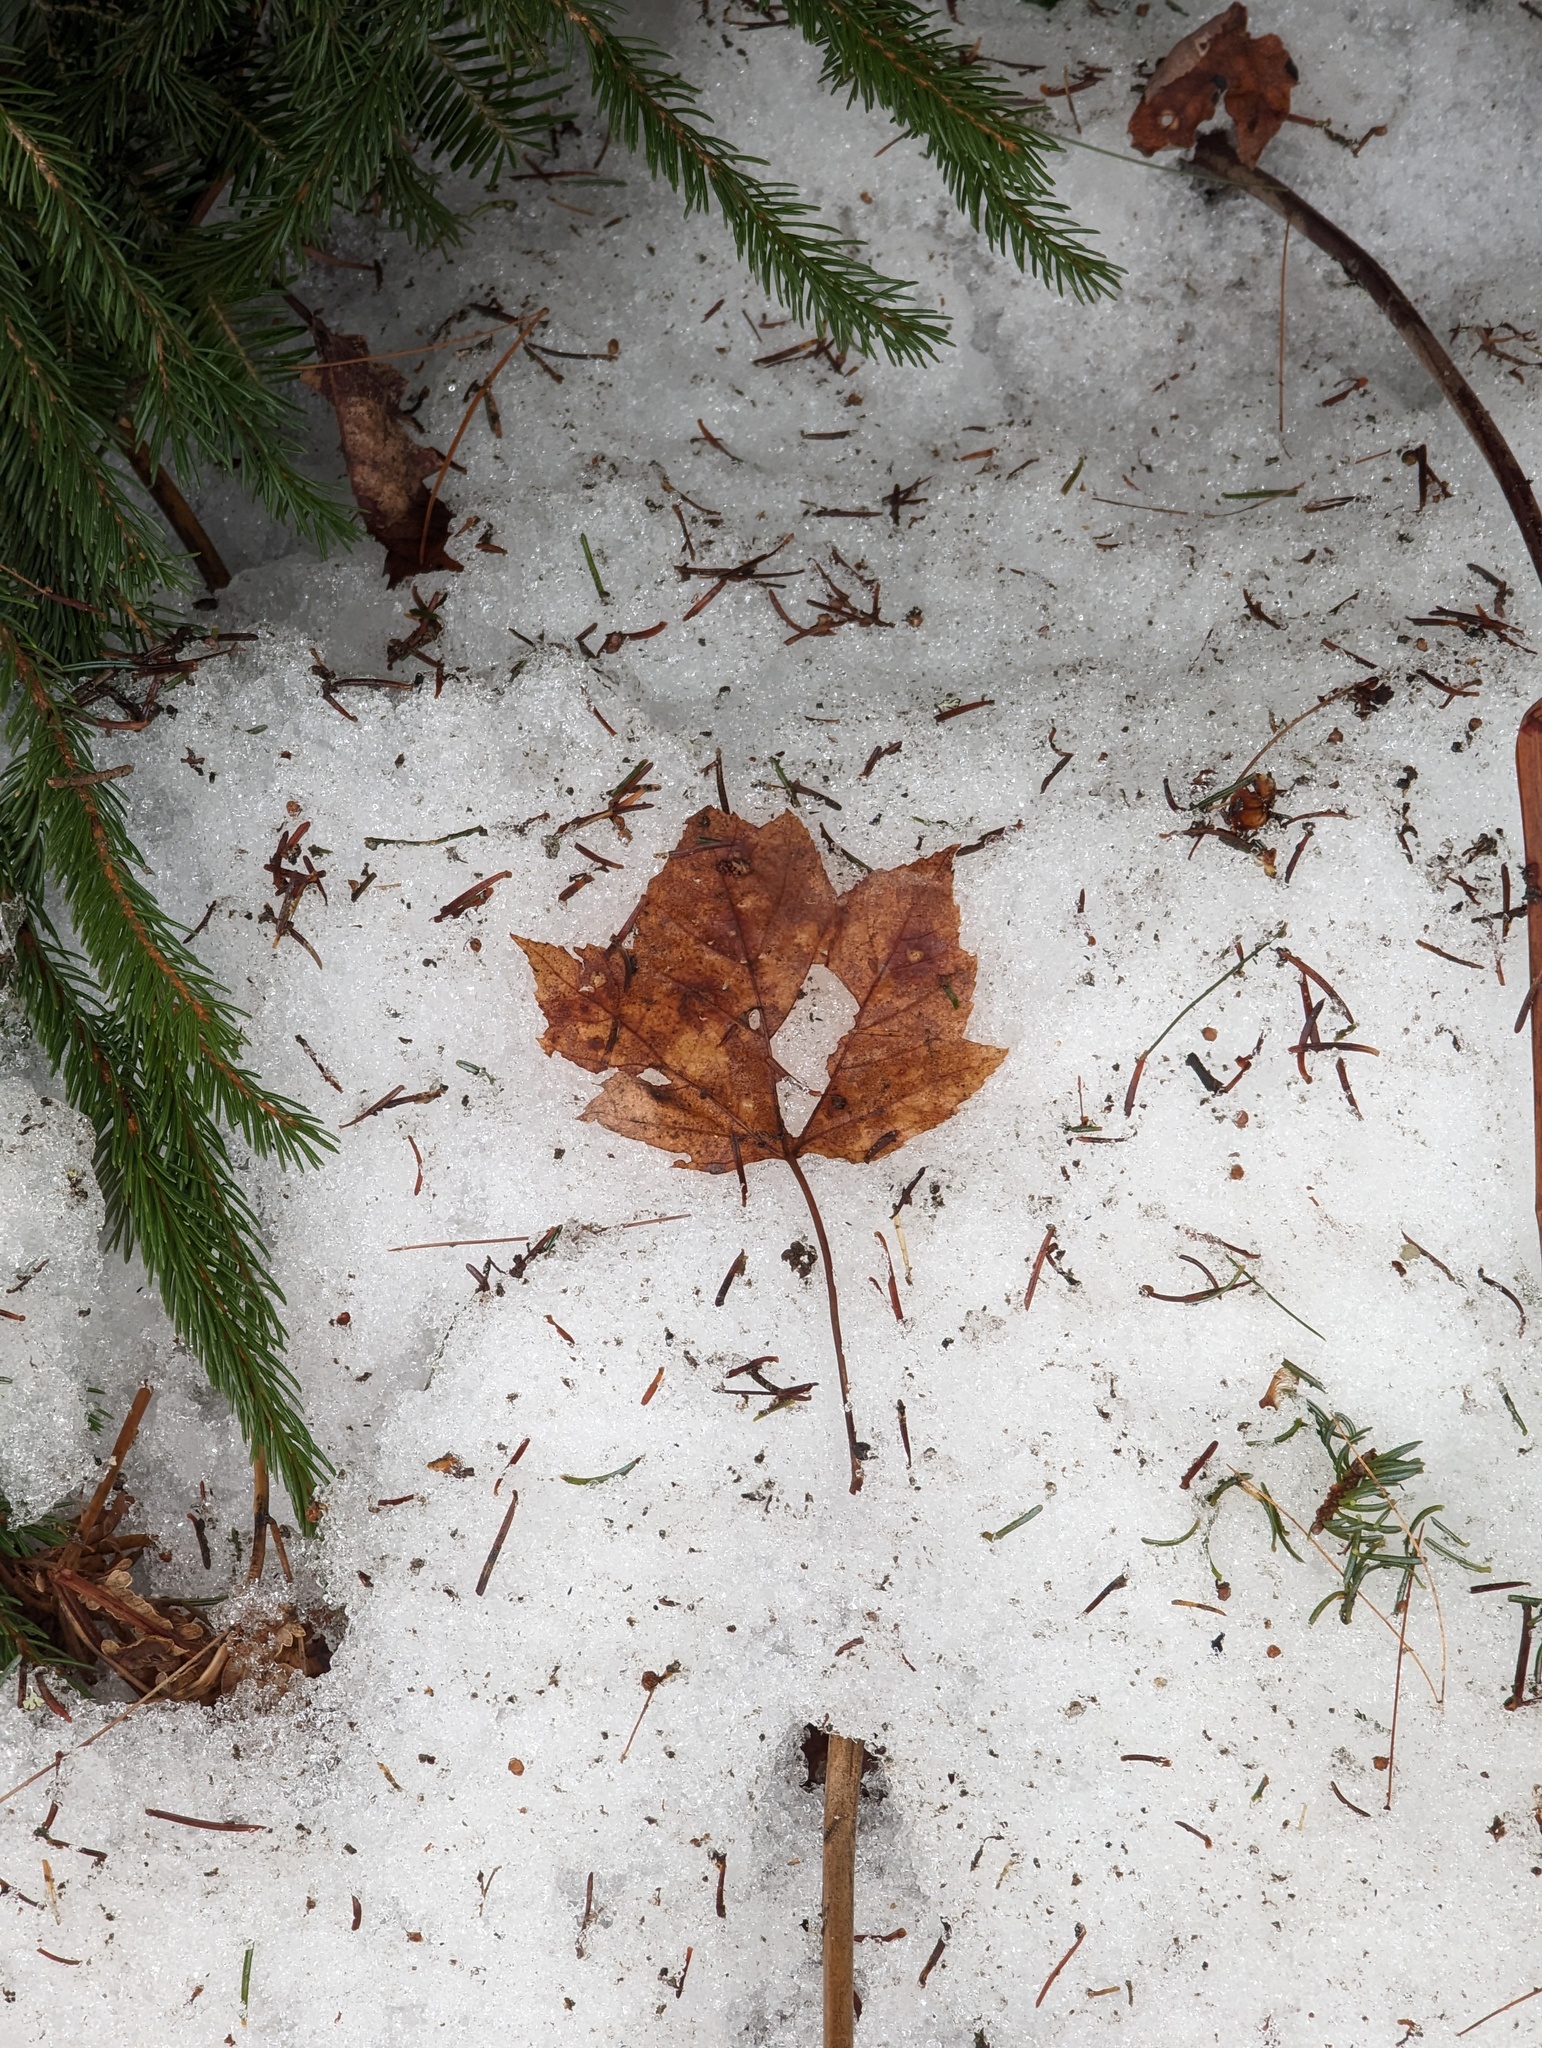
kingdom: Plantae
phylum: Tracheophyta
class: Magnoliopsida
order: Sapindales
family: Sapindaceae
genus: Acer
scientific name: Acer rubrum
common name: Red maple
